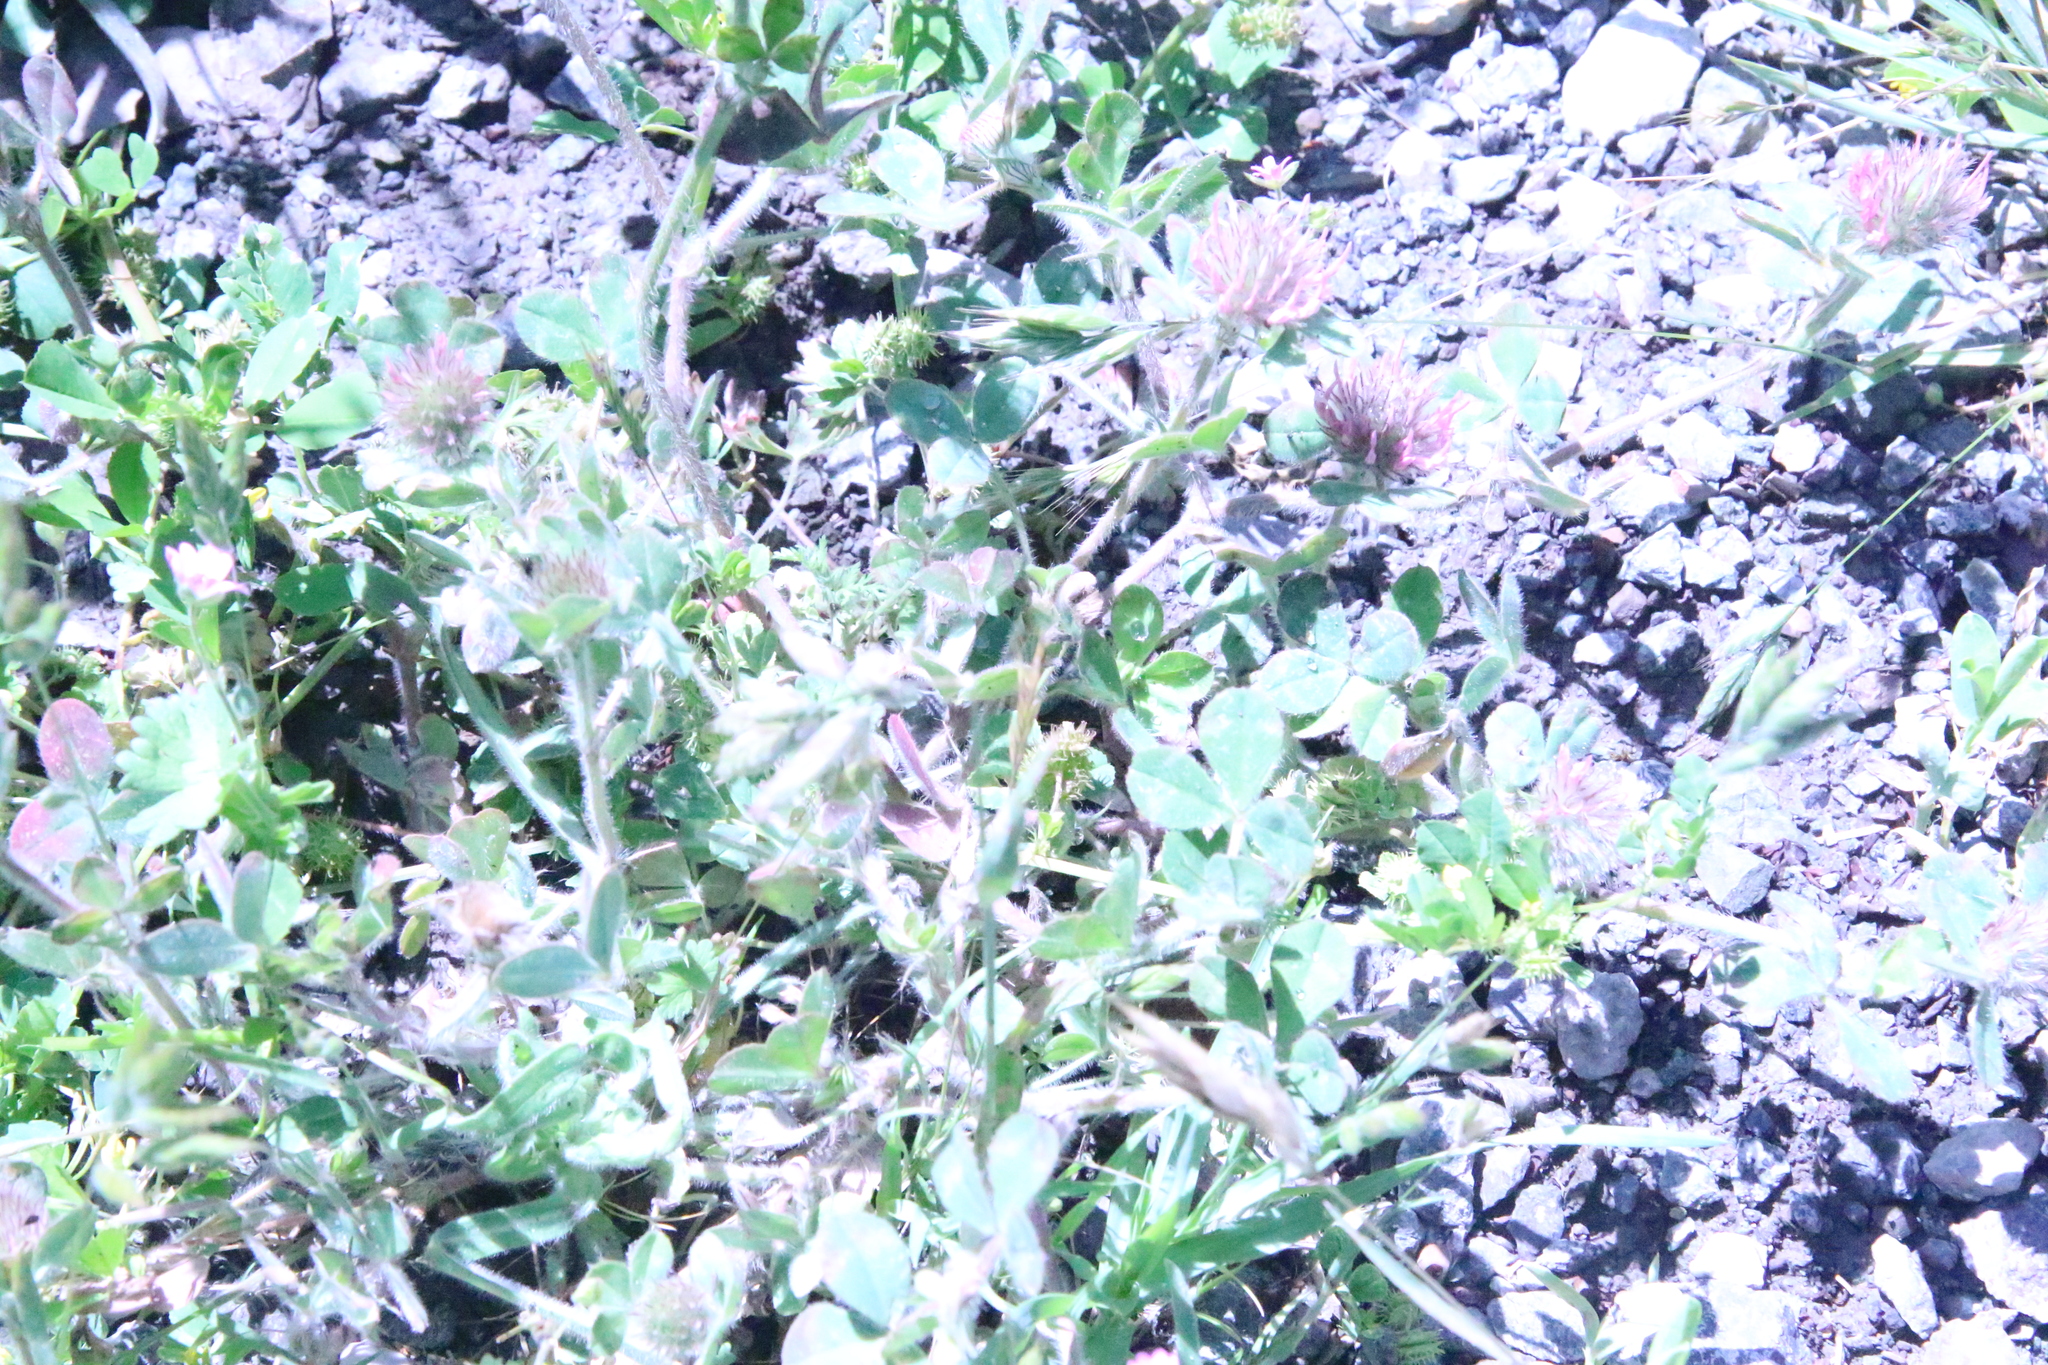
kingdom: Plantae
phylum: Tracheophyta
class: Magnoliopsida
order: Fabales
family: Fabaceae
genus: Trifolium
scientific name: Trifolium hirtum
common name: Rose clover
